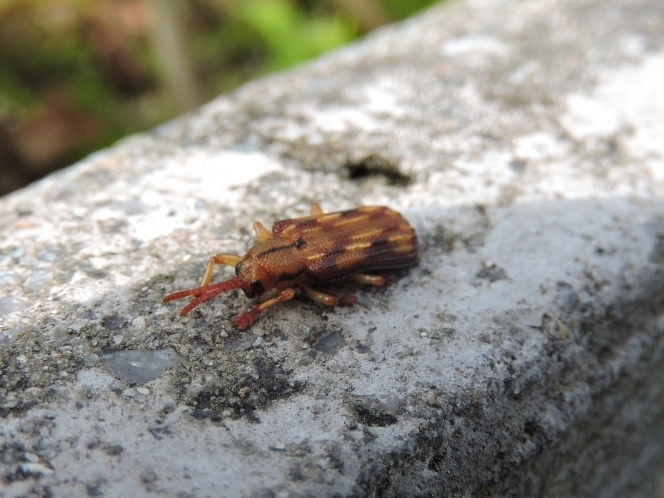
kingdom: Animalia
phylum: Arthropoda
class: Insecta
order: Coleoptera
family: Chrysomelidae
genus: Acentroptera
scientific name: Acentroptera basilica
